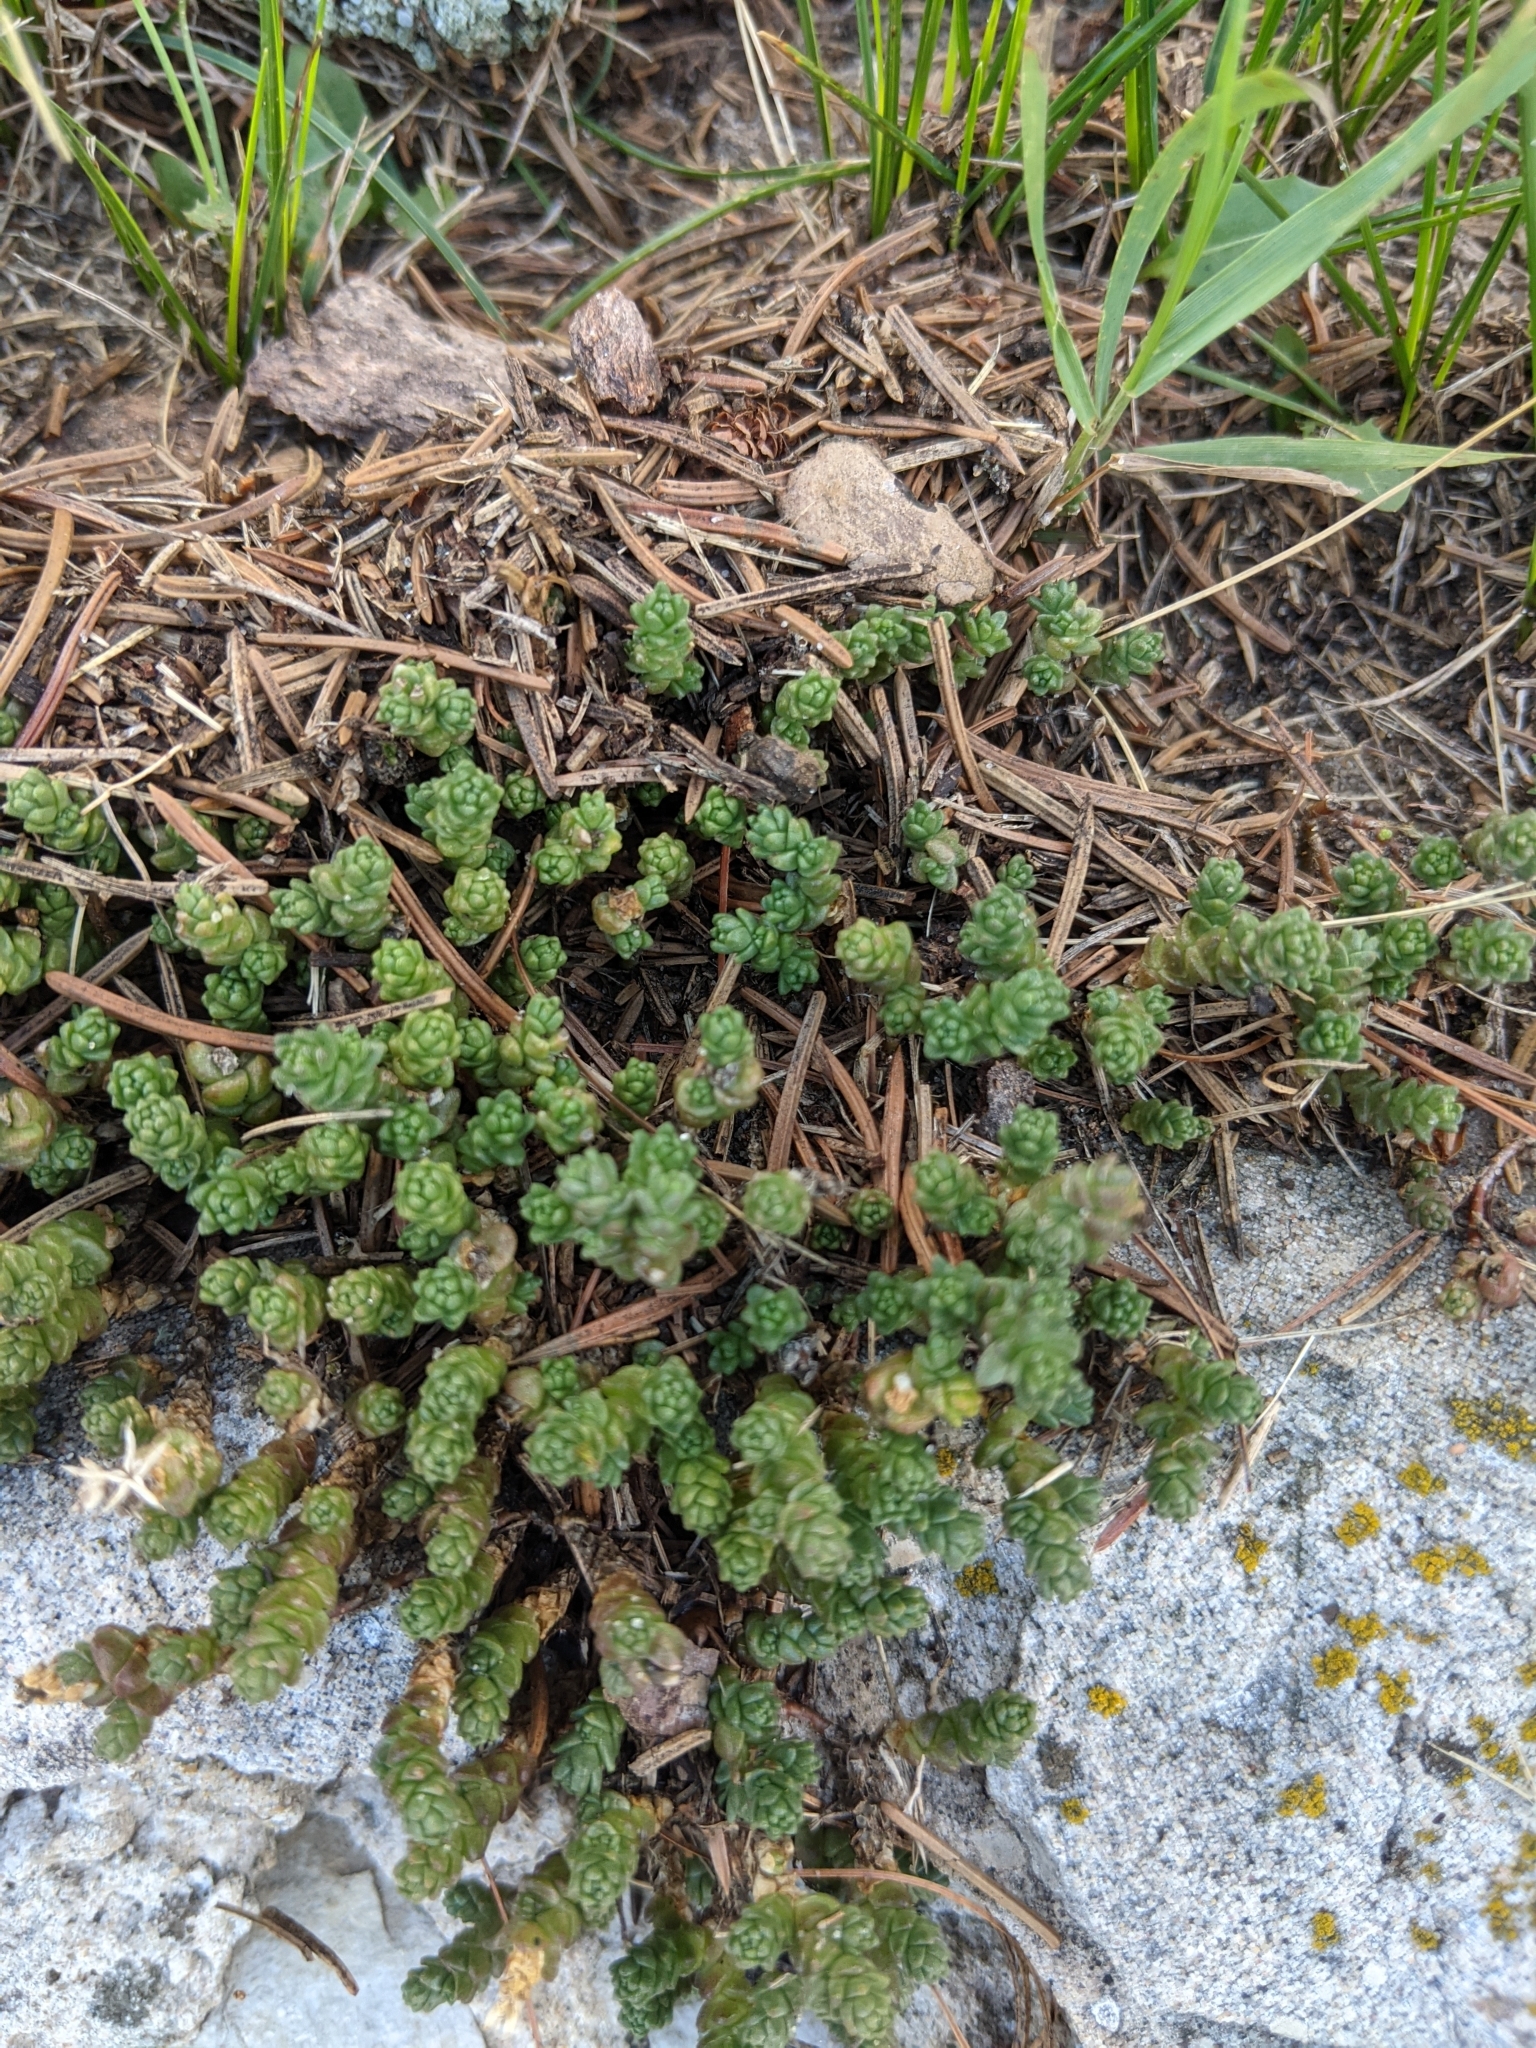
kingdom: Plantae
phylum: Tracheophyta
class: Magnoliopsida
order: Saxifragales
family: Crassulaceae
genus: Sedum
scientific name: Sedum acre
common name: Biting stonecrop
